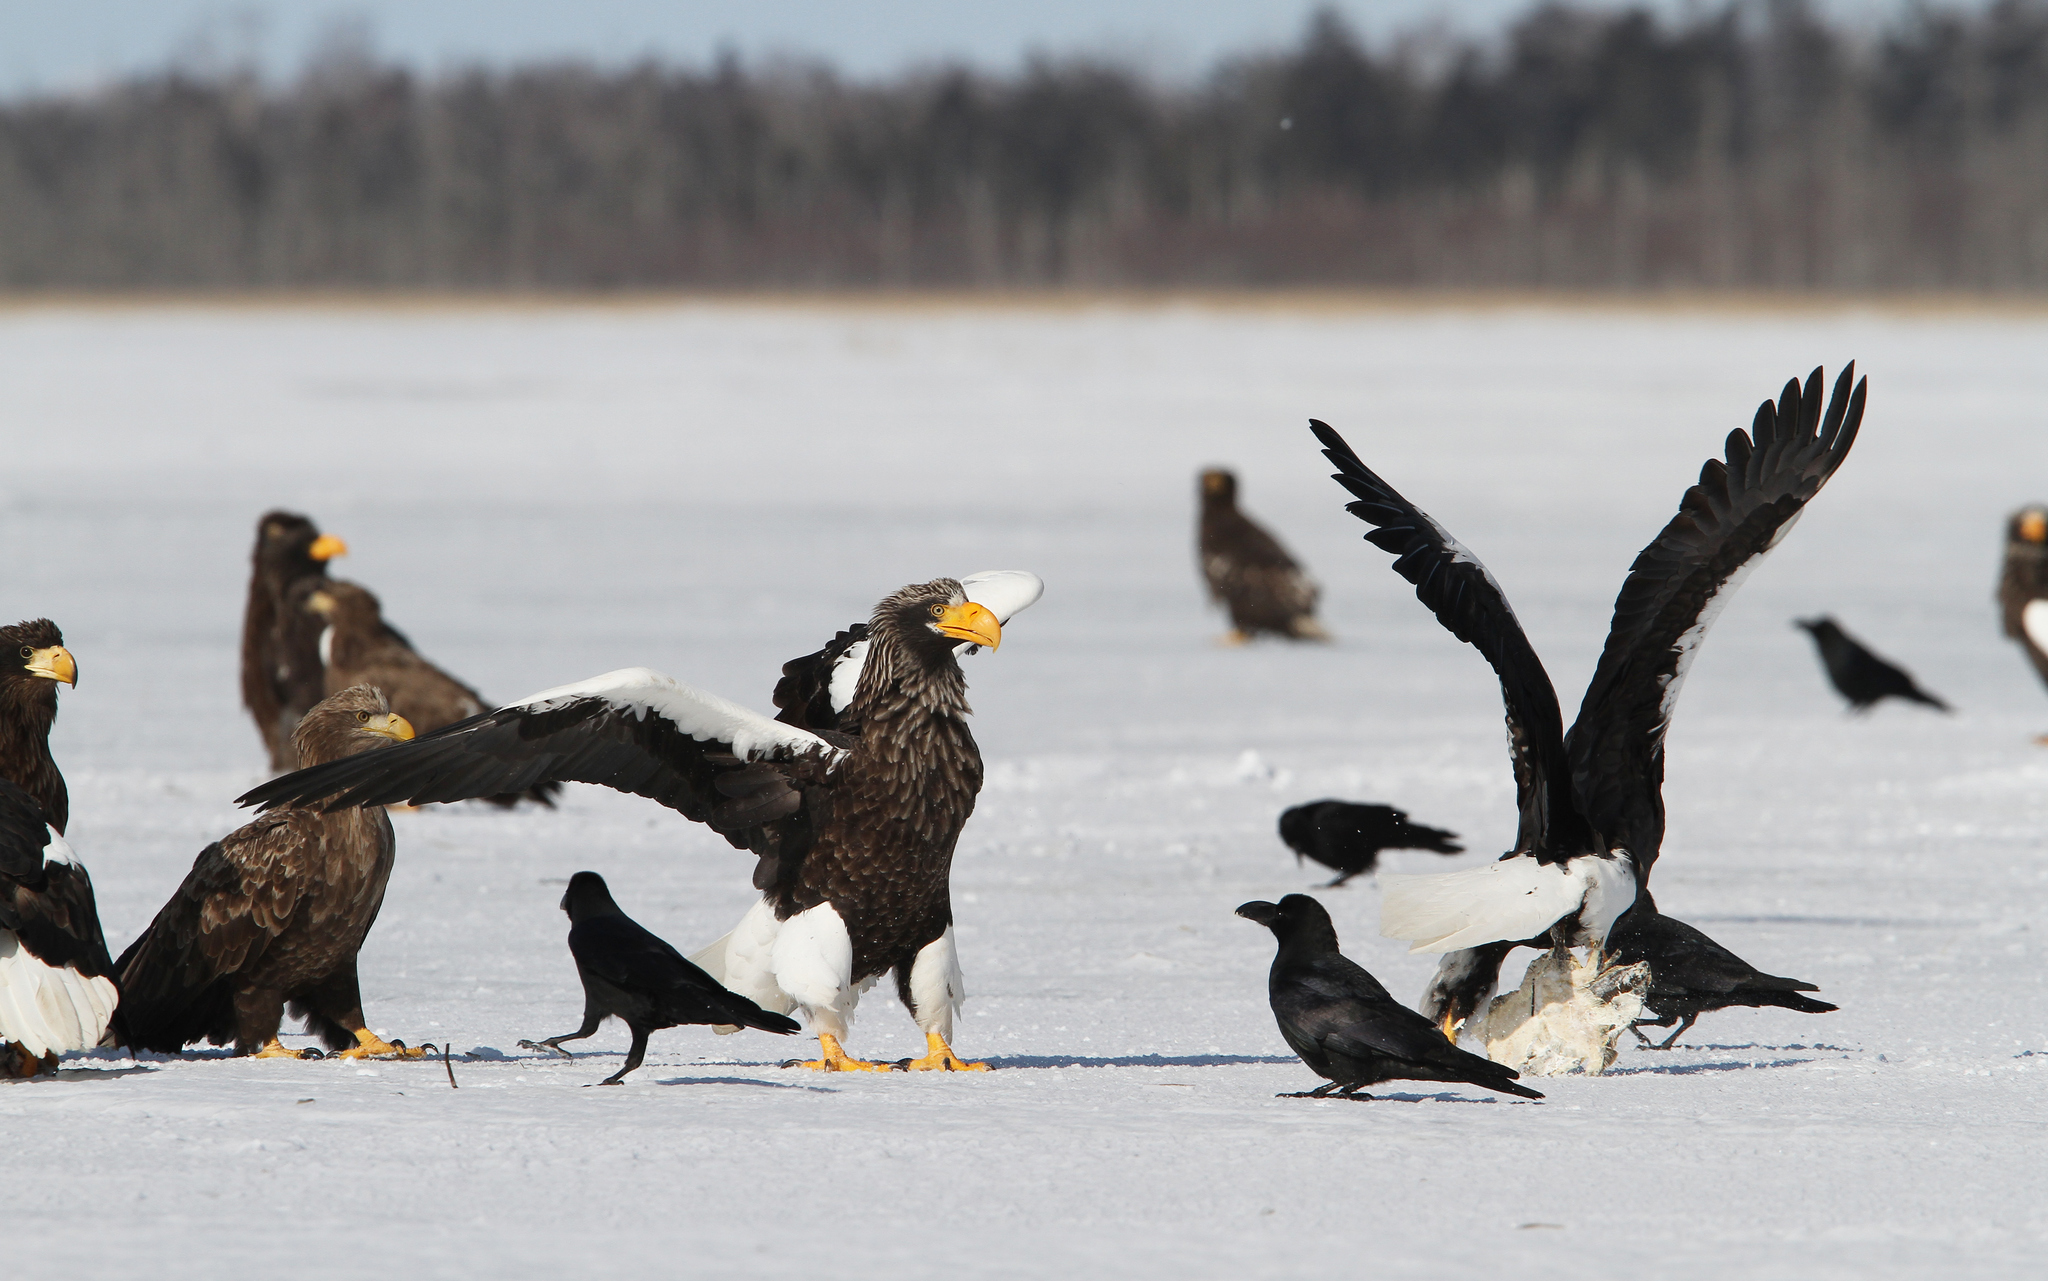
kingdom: Animalia
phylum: Chordata
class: Aves
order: Accipitriformes
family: Accipitridae
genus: Haliaeetus
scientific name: Haliaeetus pelagicus
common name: Steller's sea eagle
